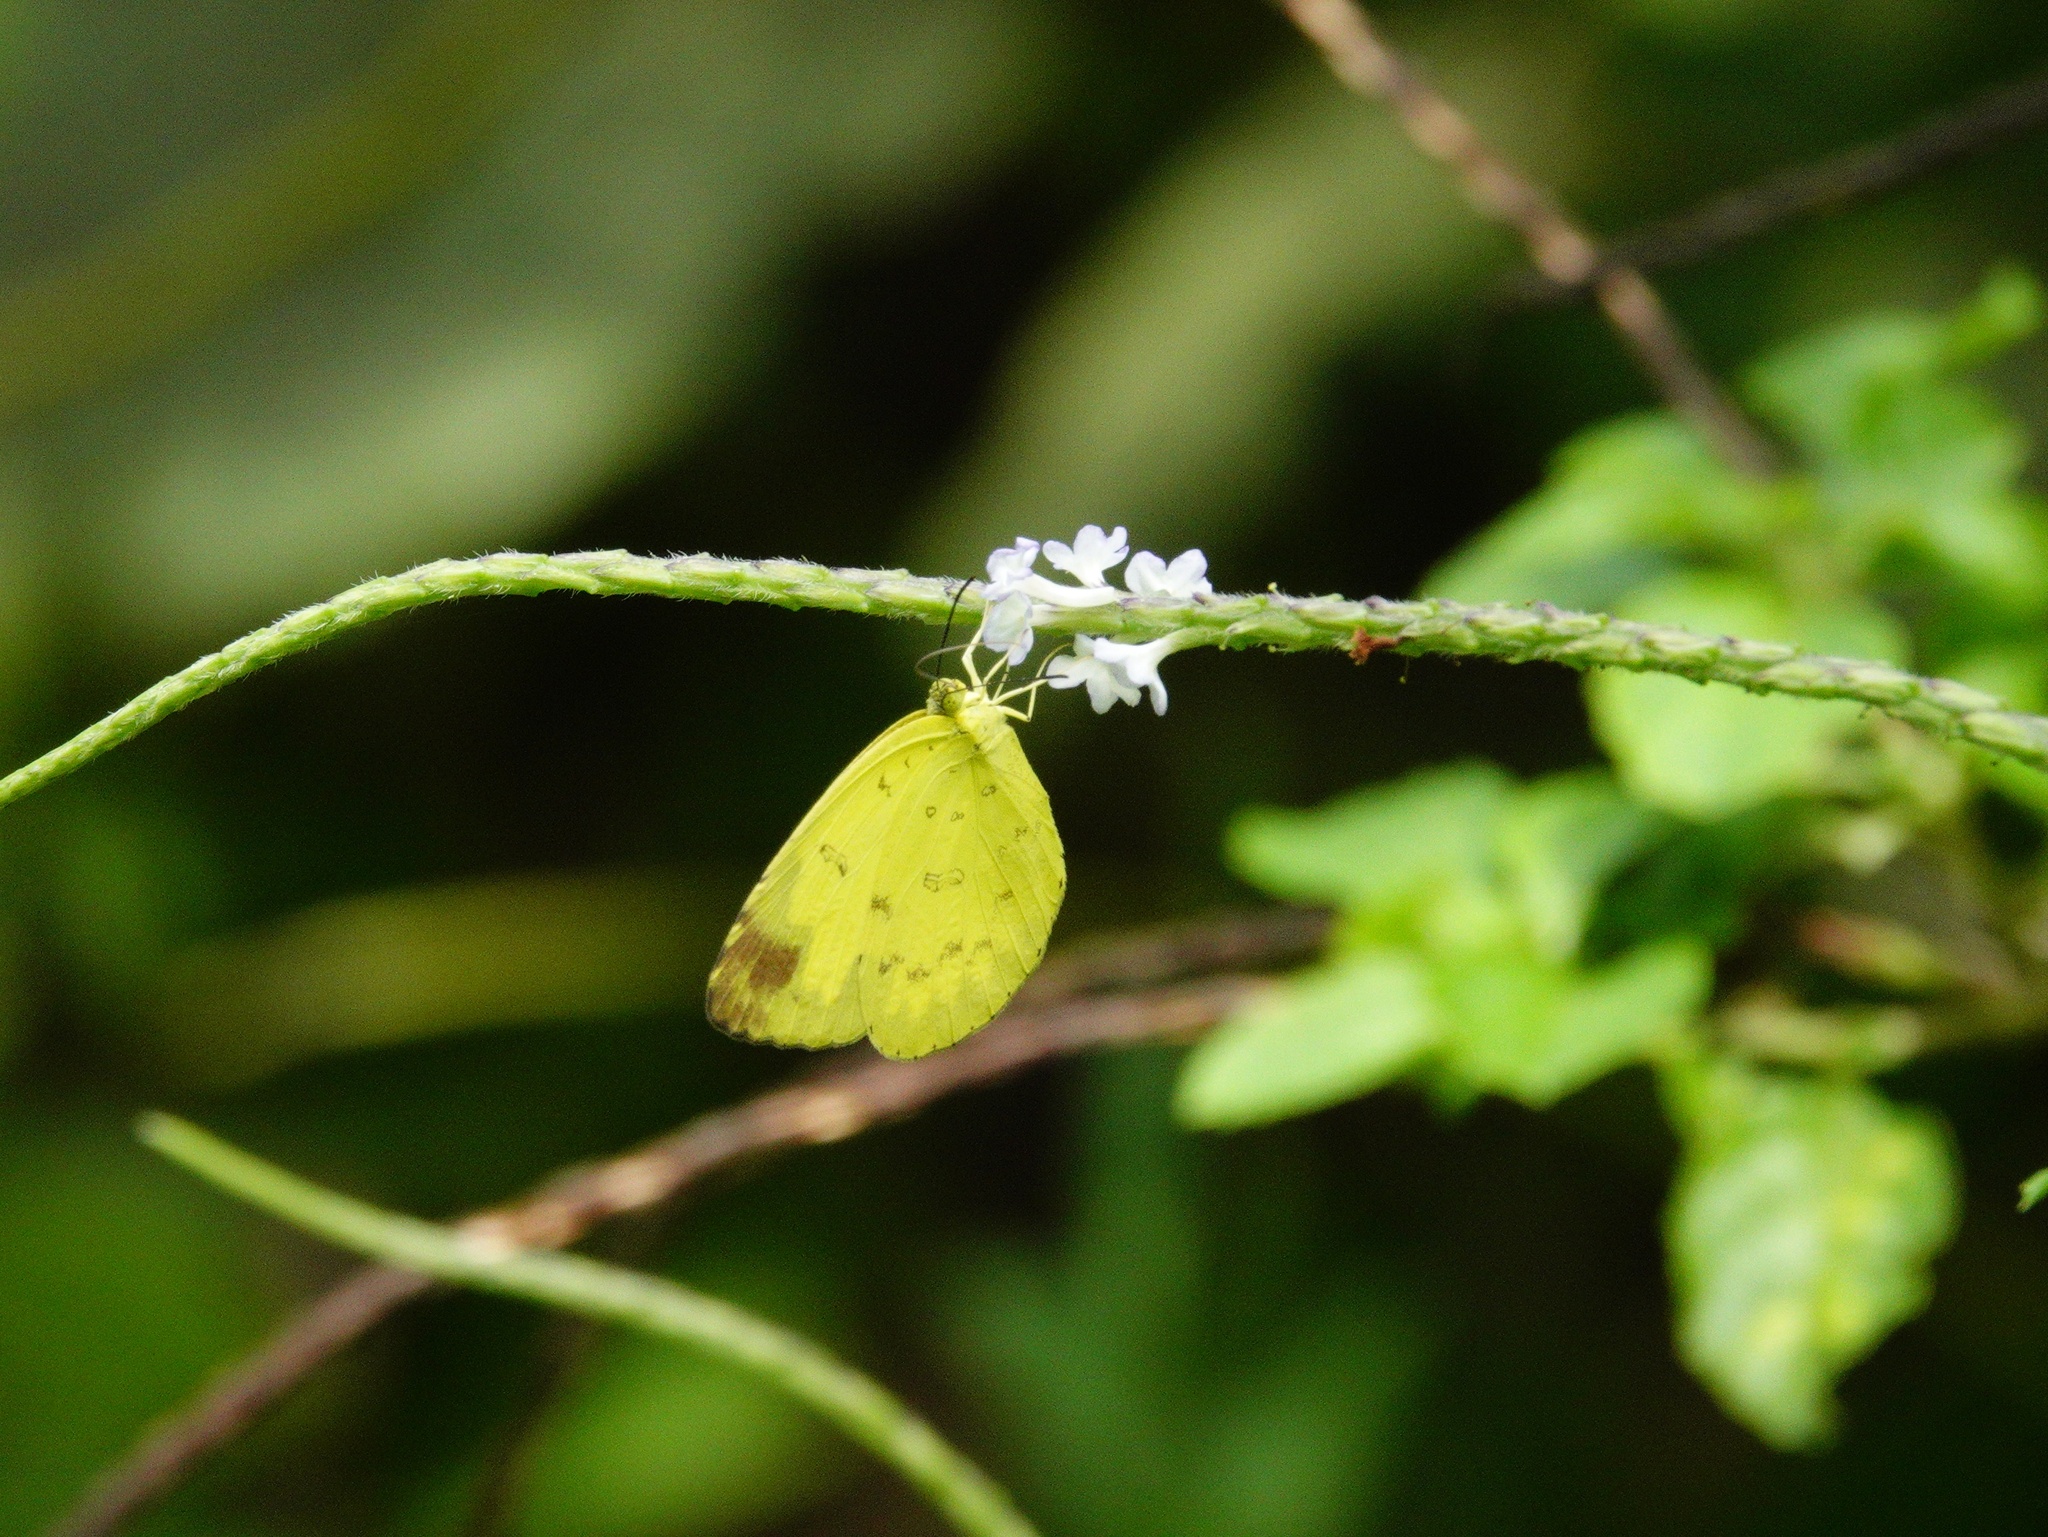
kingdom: Animalia
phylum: Arthropoda
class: Insecta
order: Lepidoptera
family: Pieridae
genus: Eurema
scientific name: Eurema blanda
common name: Three-spot grass yellow
